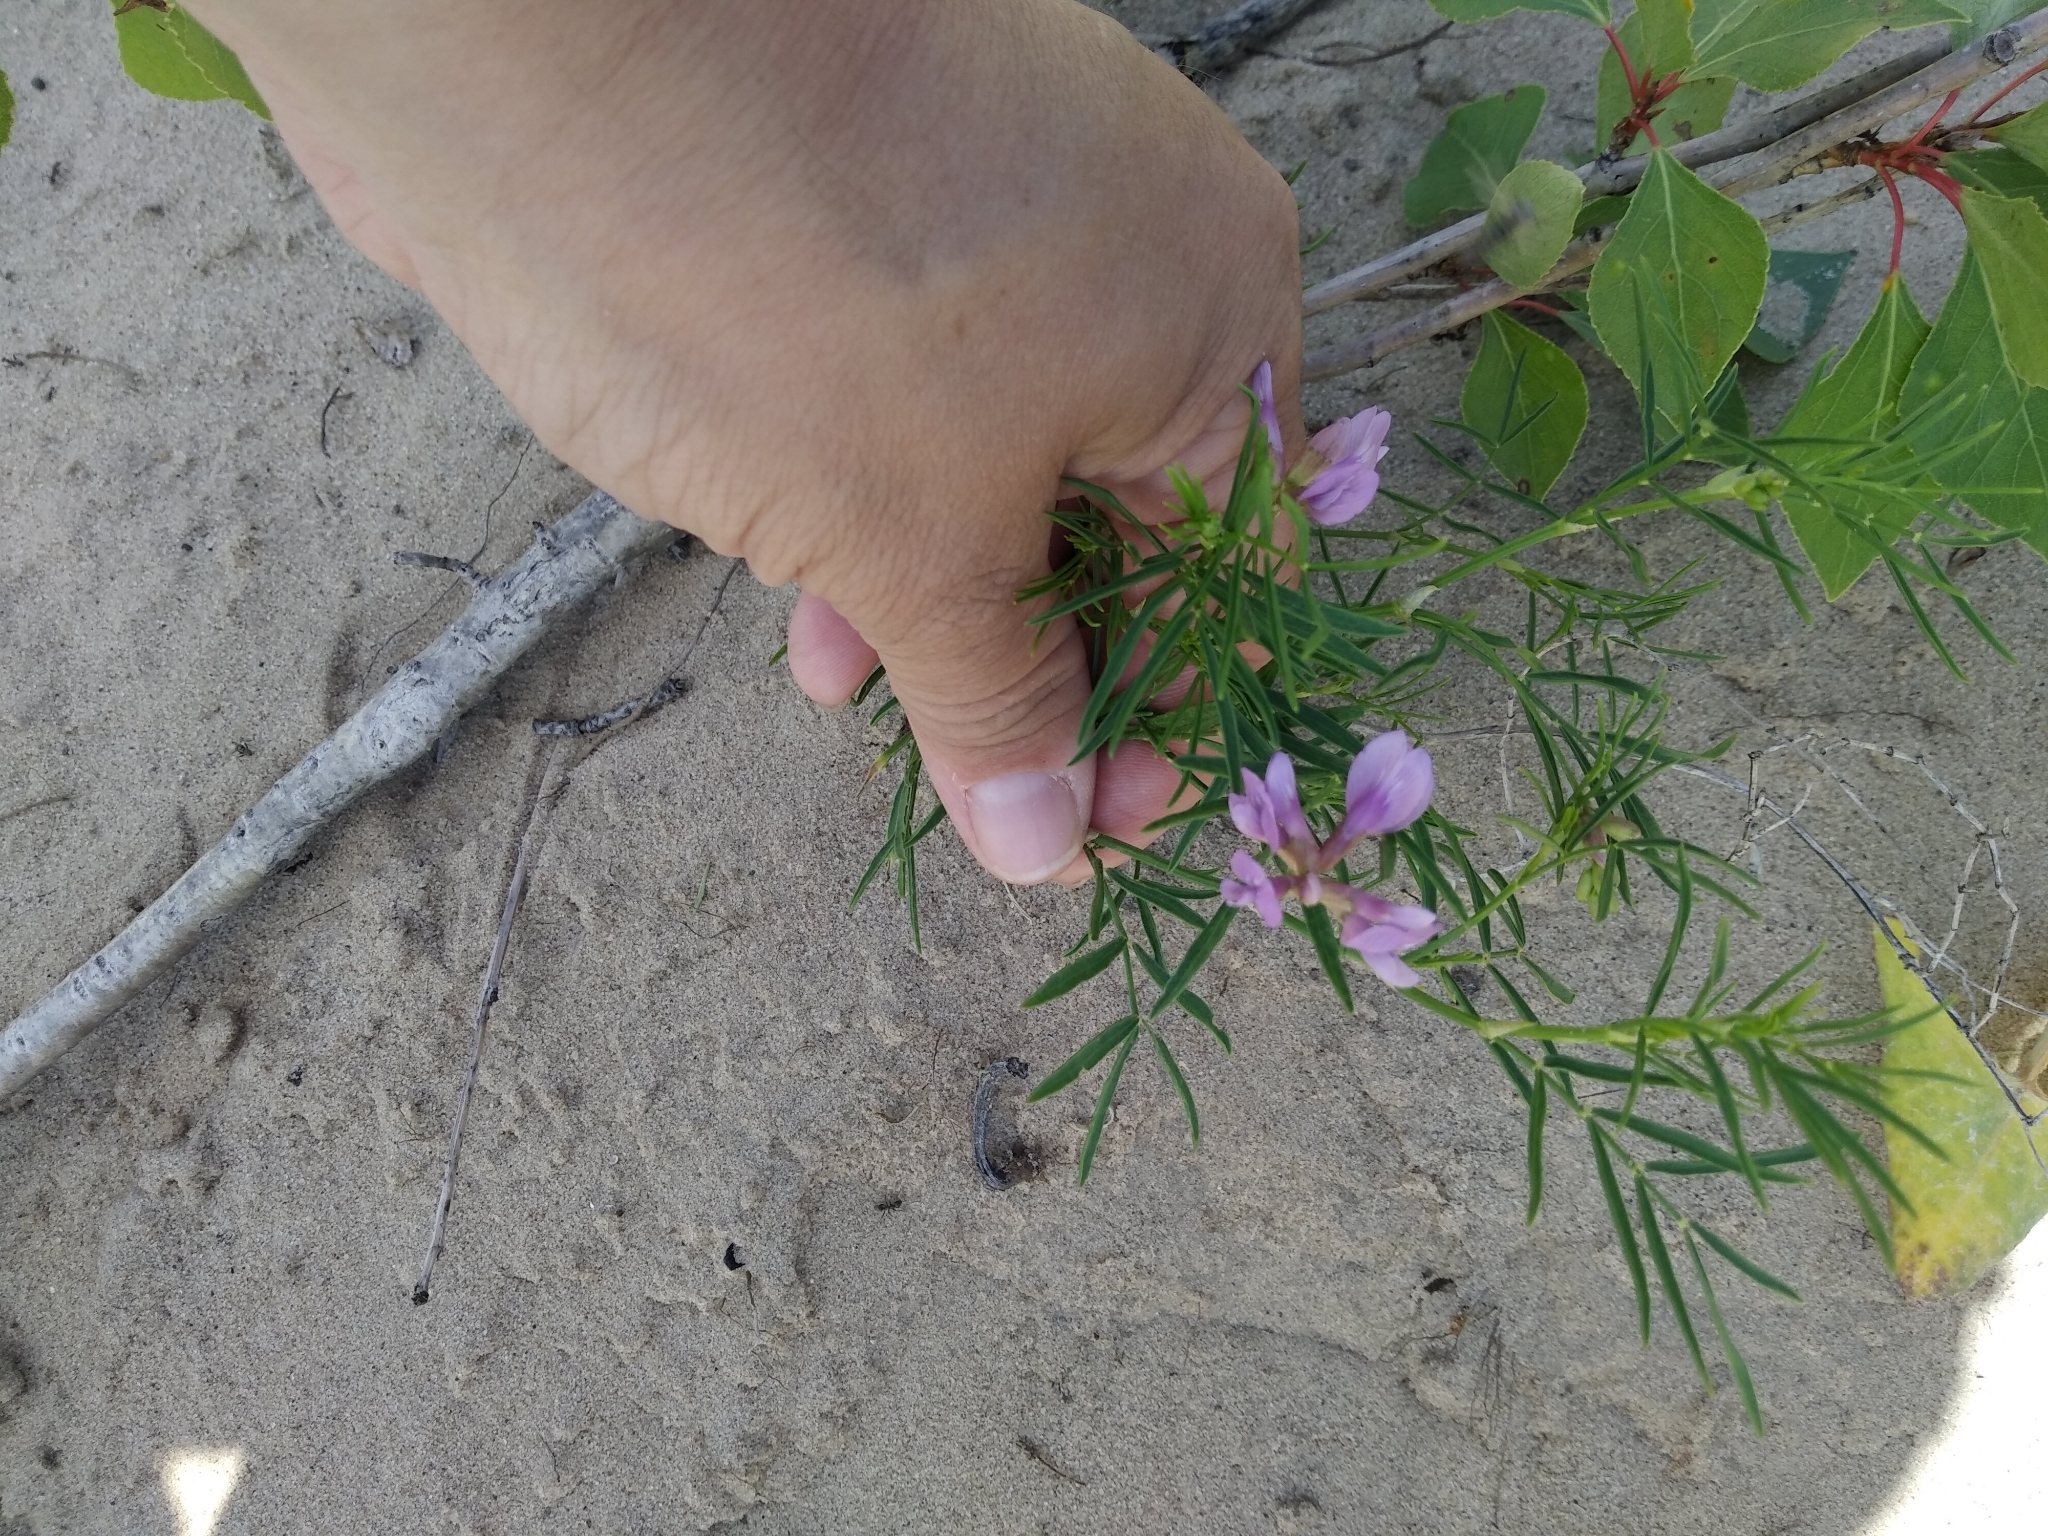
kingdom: Plantae
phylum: Tracheophyta
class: Magnoliopsida
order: Fabales
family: Fabaceae
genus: Astragalus
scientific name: Astragalus arenarius
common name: Arenarious milk-vetch
